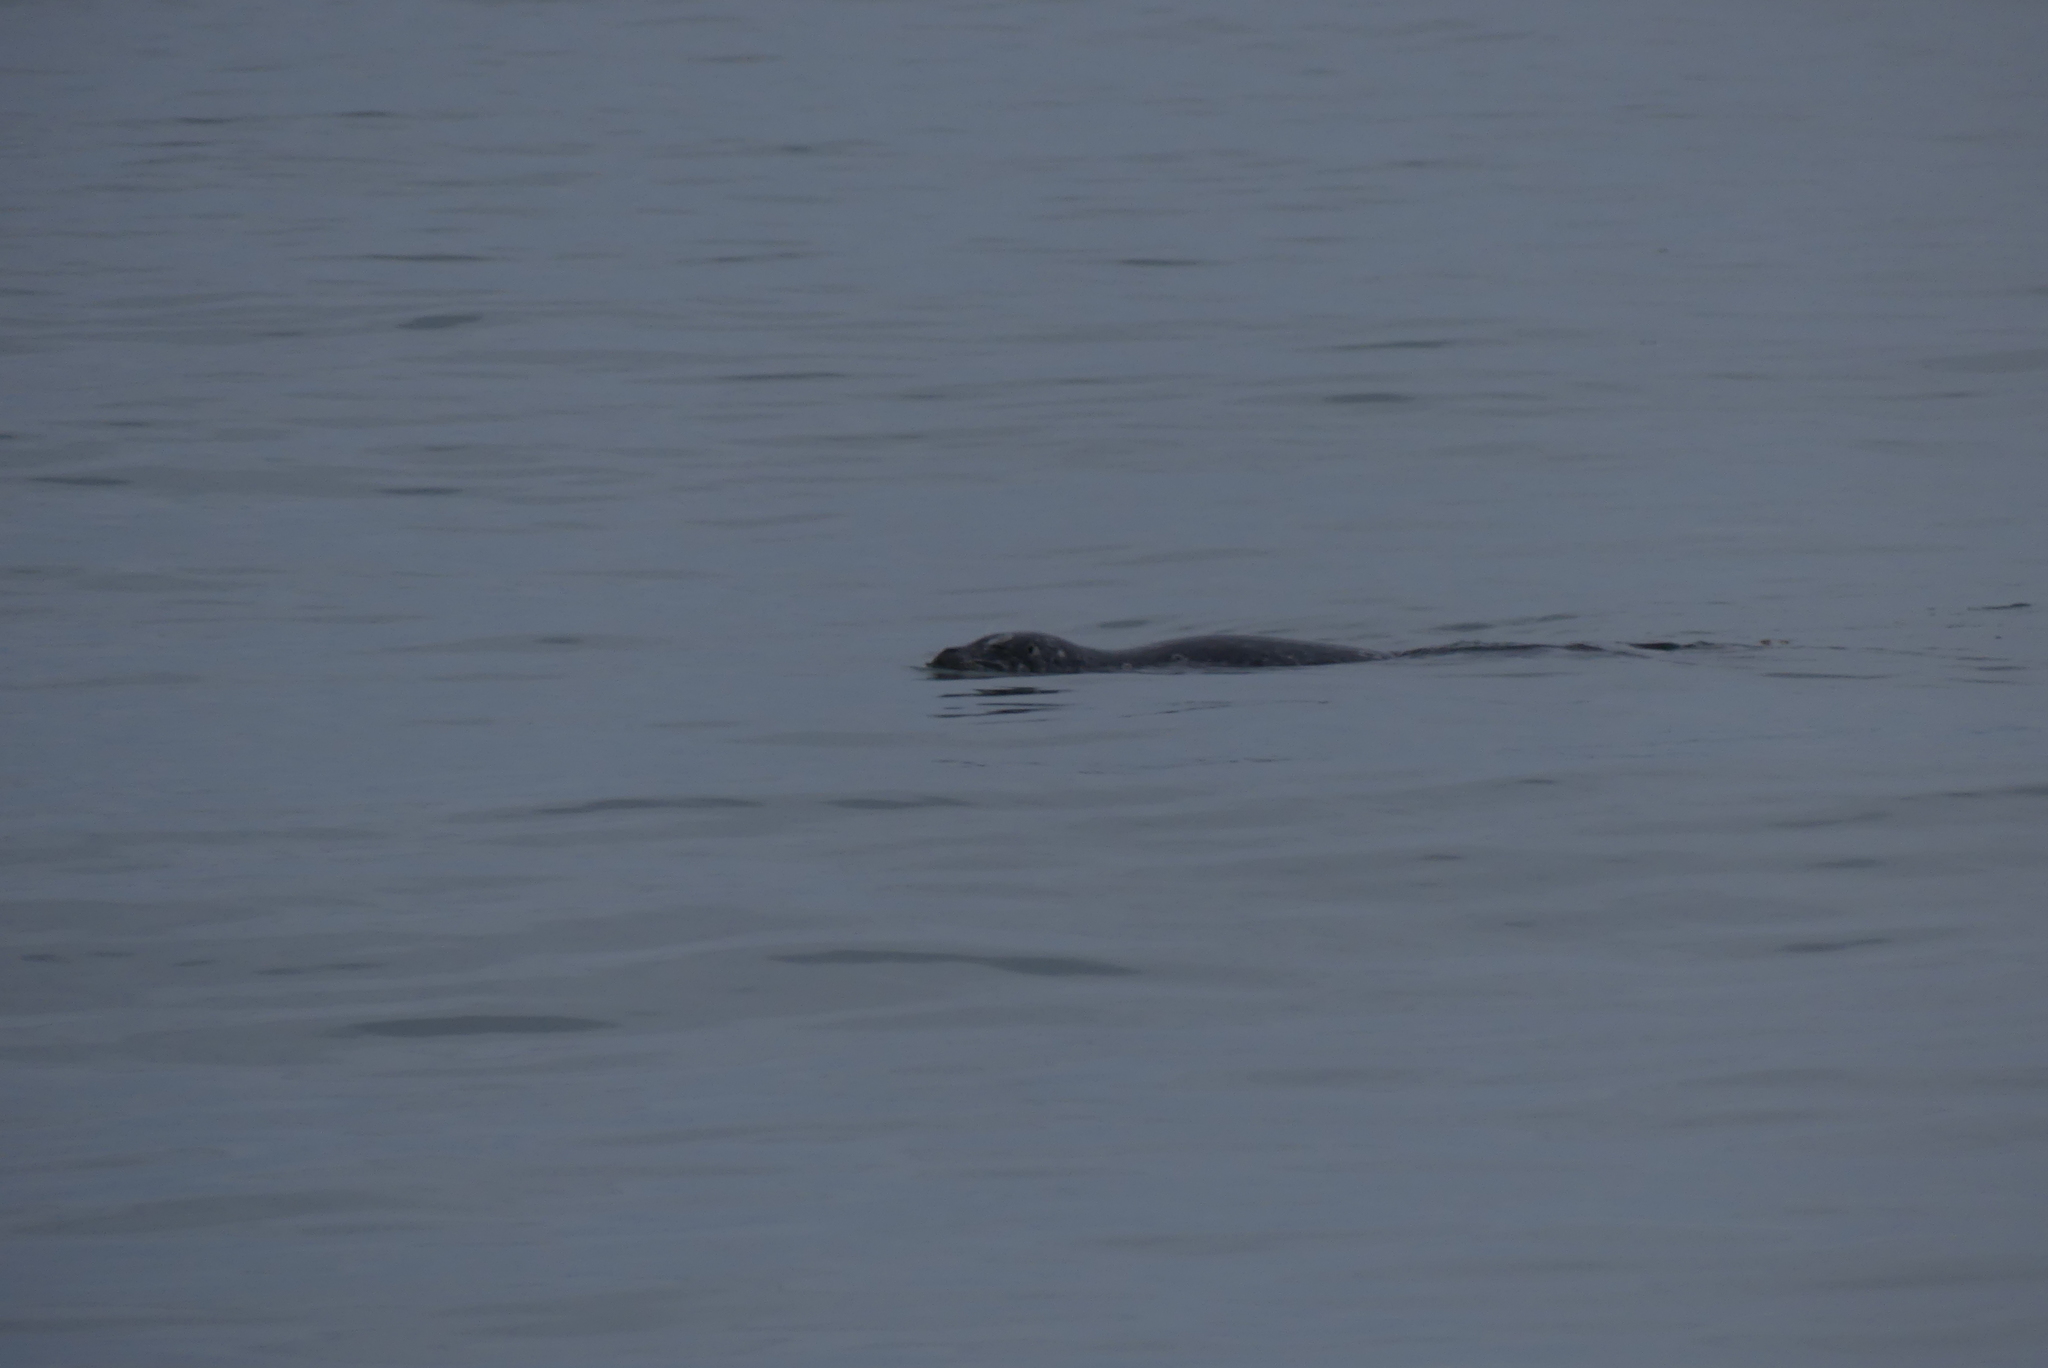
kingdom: Animalia
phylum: Chordata
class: Mammalia
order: Carnivora
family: Phocidae
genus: Phoca
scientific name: Phoca vitulina
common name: Harbor seal
